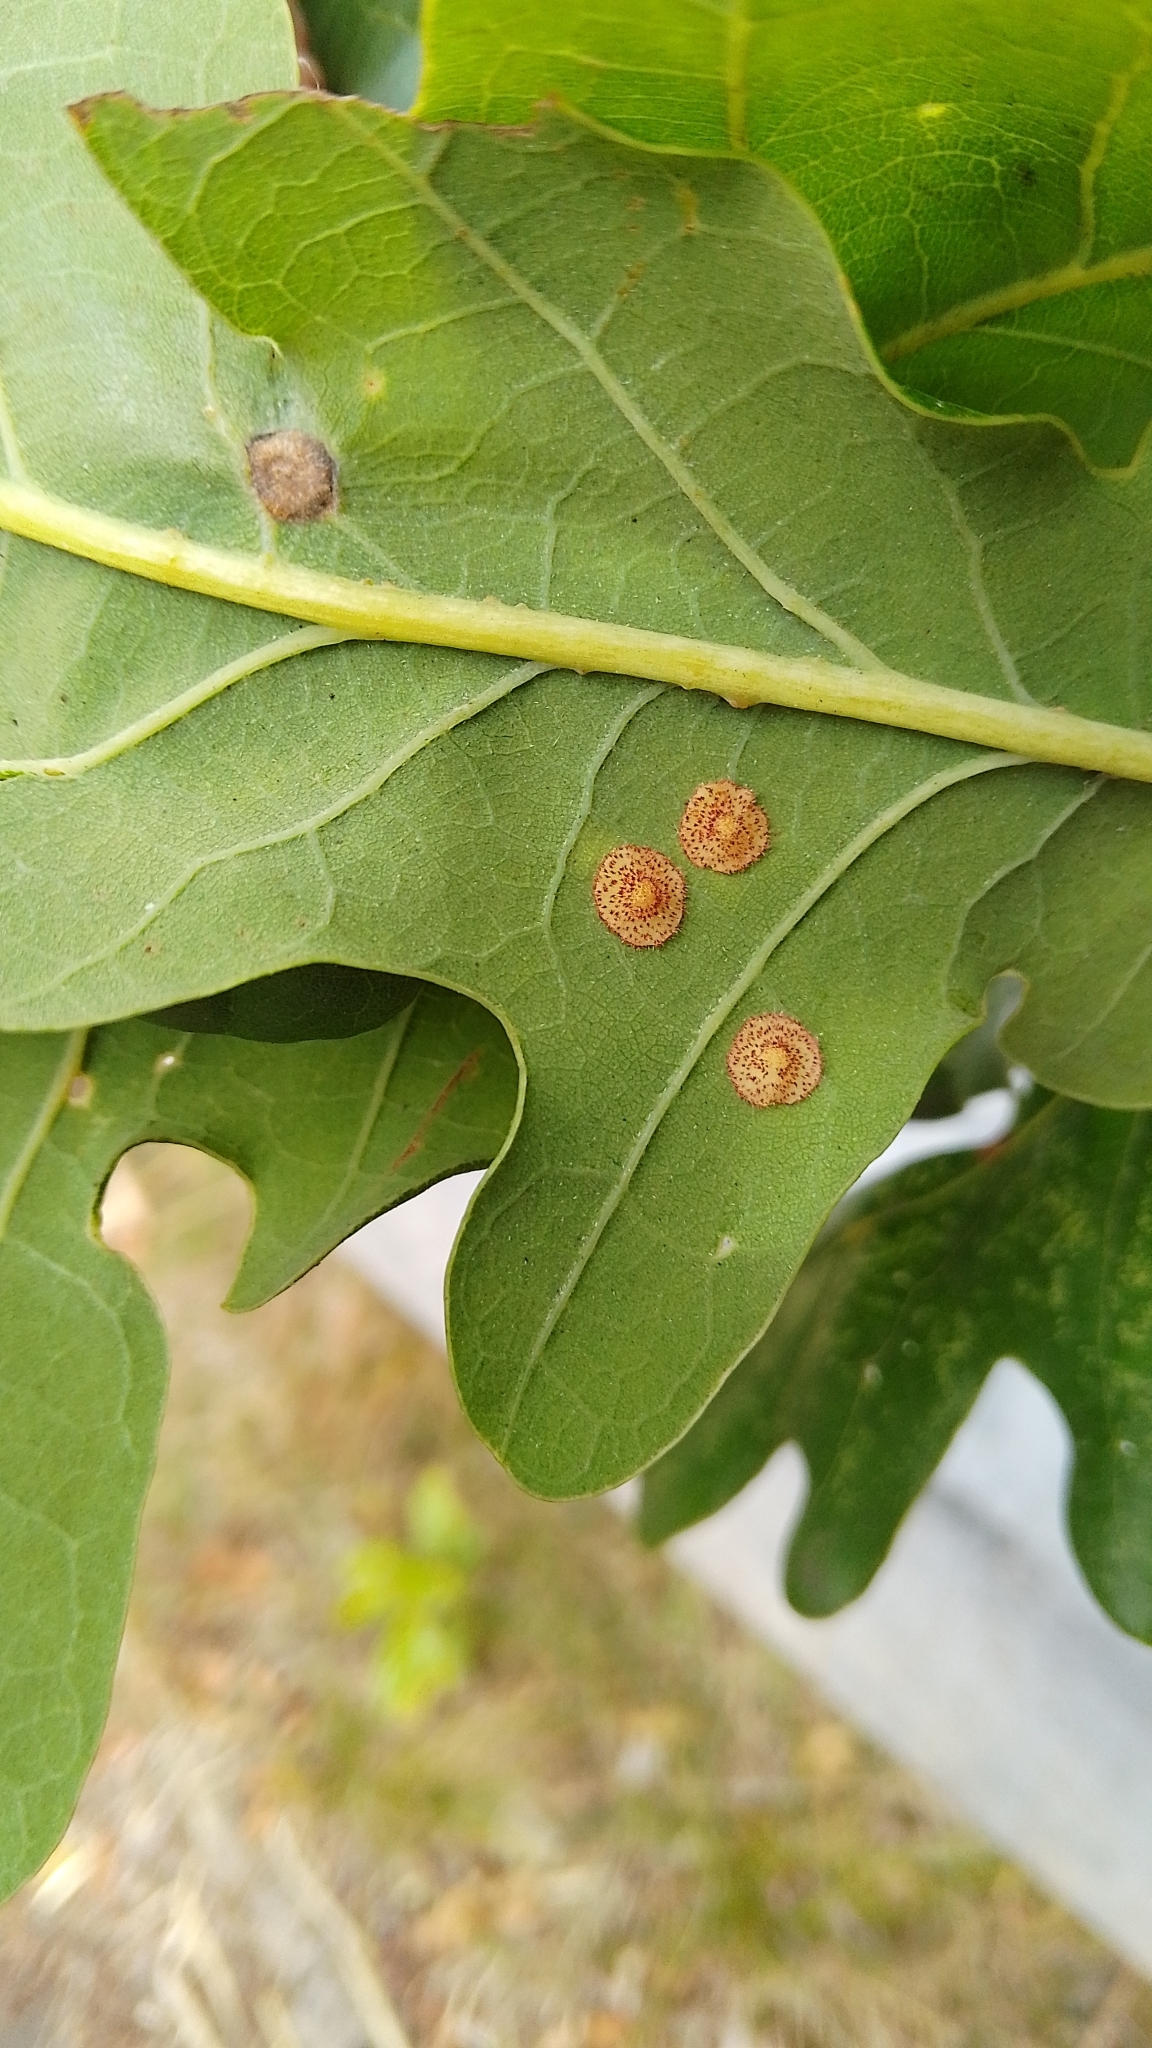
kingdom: Animalia
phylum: Arthropoda
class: Insecta
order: Hymenoptera
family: Cynipidae
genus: Neuroterus
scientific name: Neuroterus quercusbaccarum
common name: Common spangle gall
